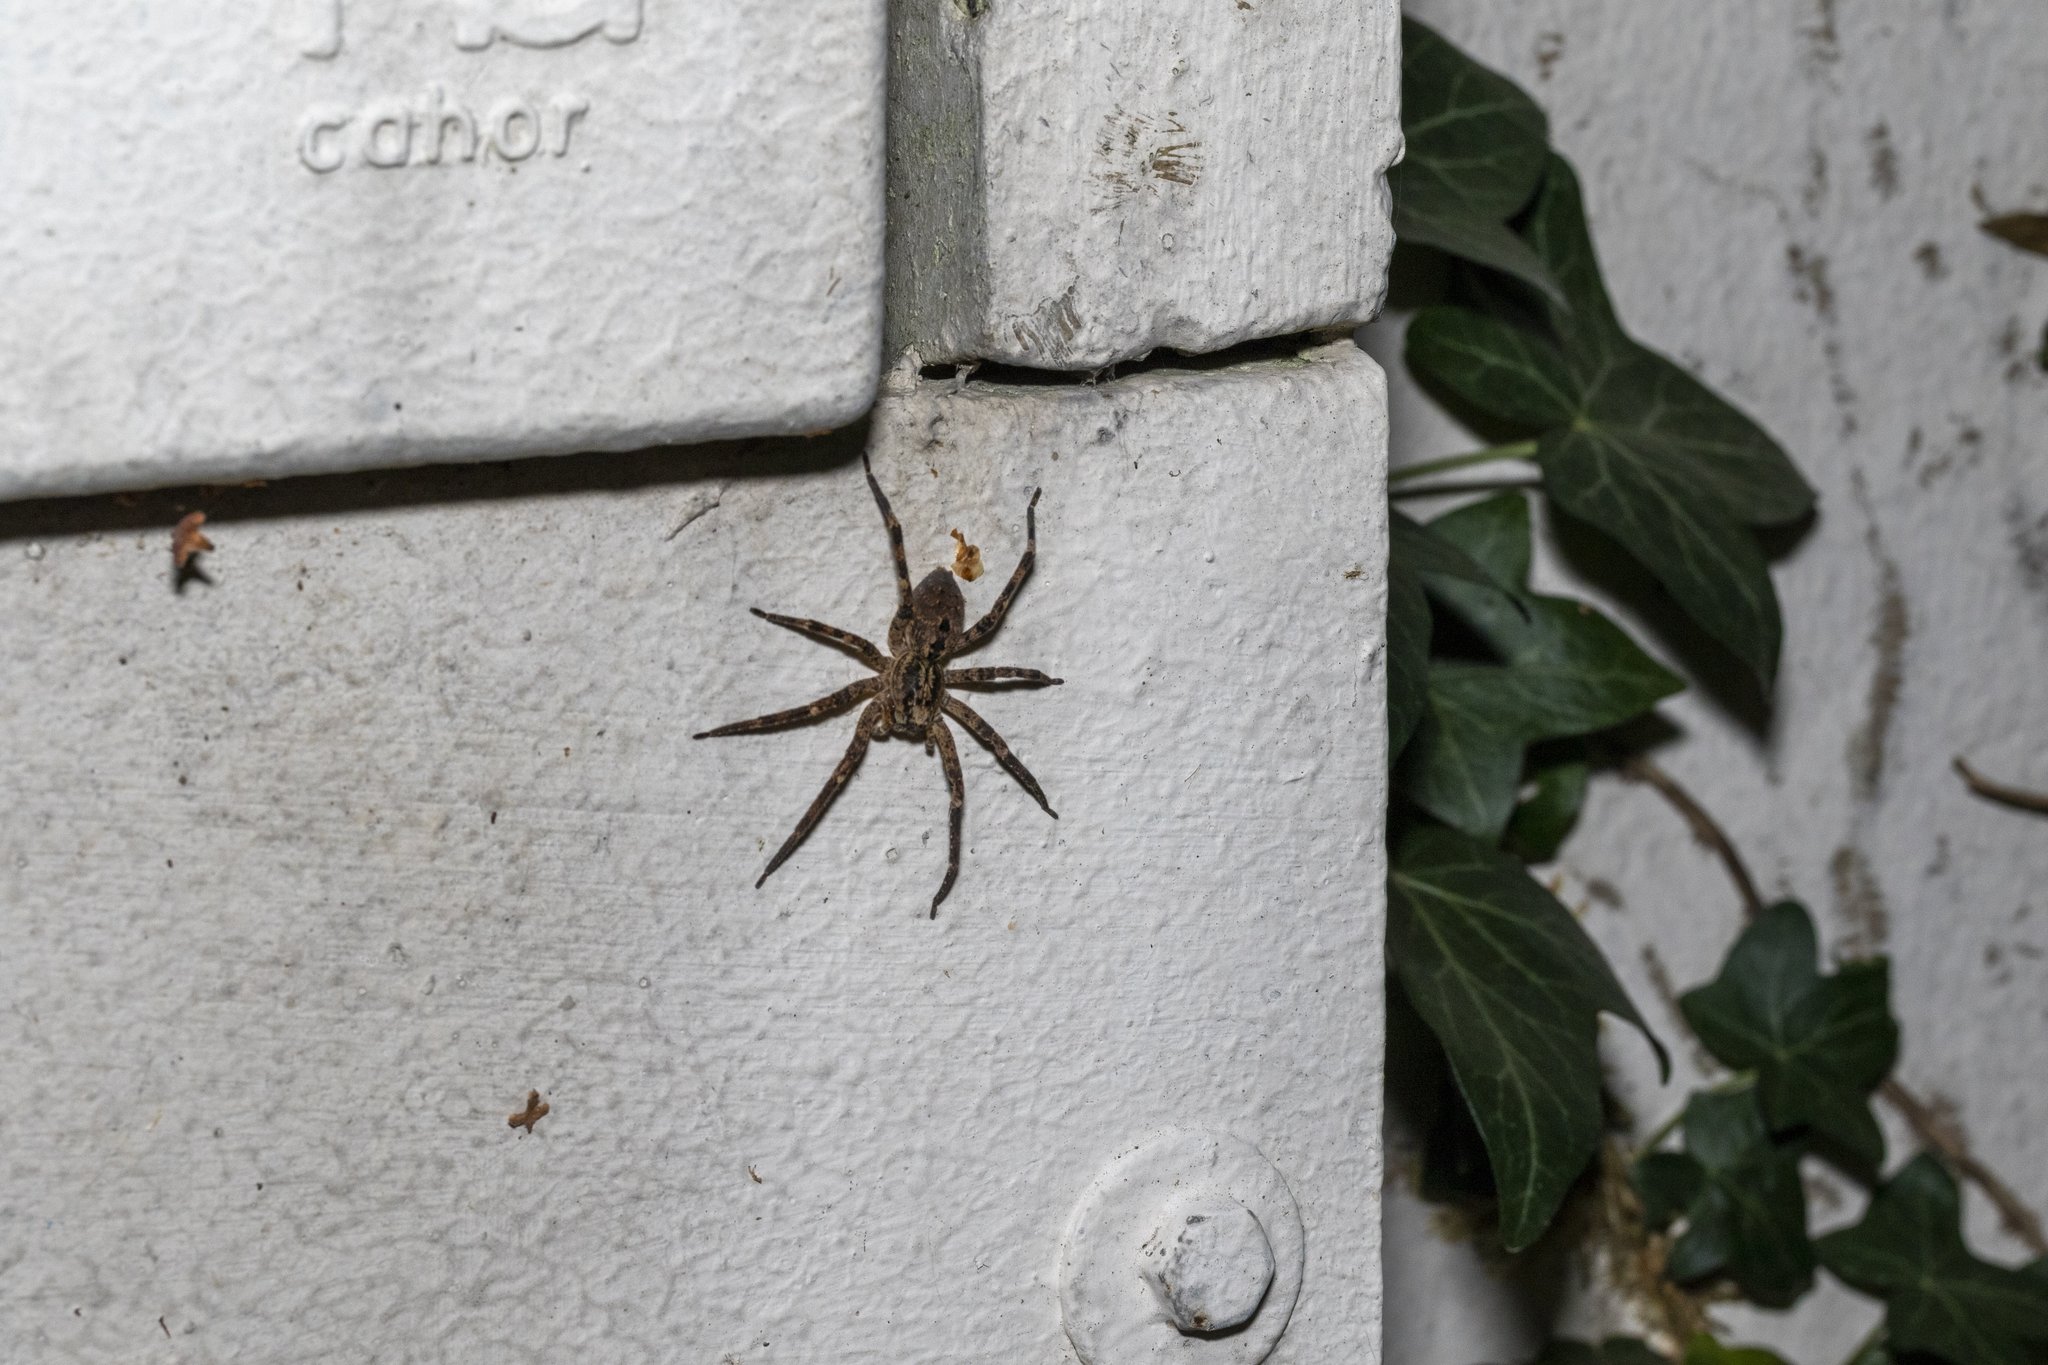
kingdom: Animalia
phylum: Arthropoda
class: Arachnida
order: Araneae
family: Zoropsidae
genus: Zoropsis
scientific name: Zoropsis spinimana
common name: Zoropsid spider
